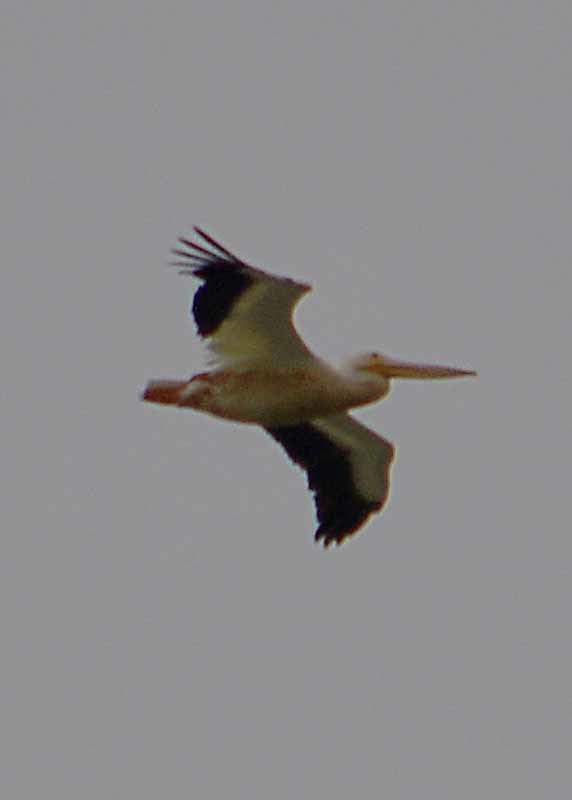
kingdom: Animalia
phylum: Chordata
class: Aves
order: Pelecaniformes
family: Pelecanidae
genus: Pelecanus
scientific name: Pelecanus erythrorhynchos
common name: American white pelican
